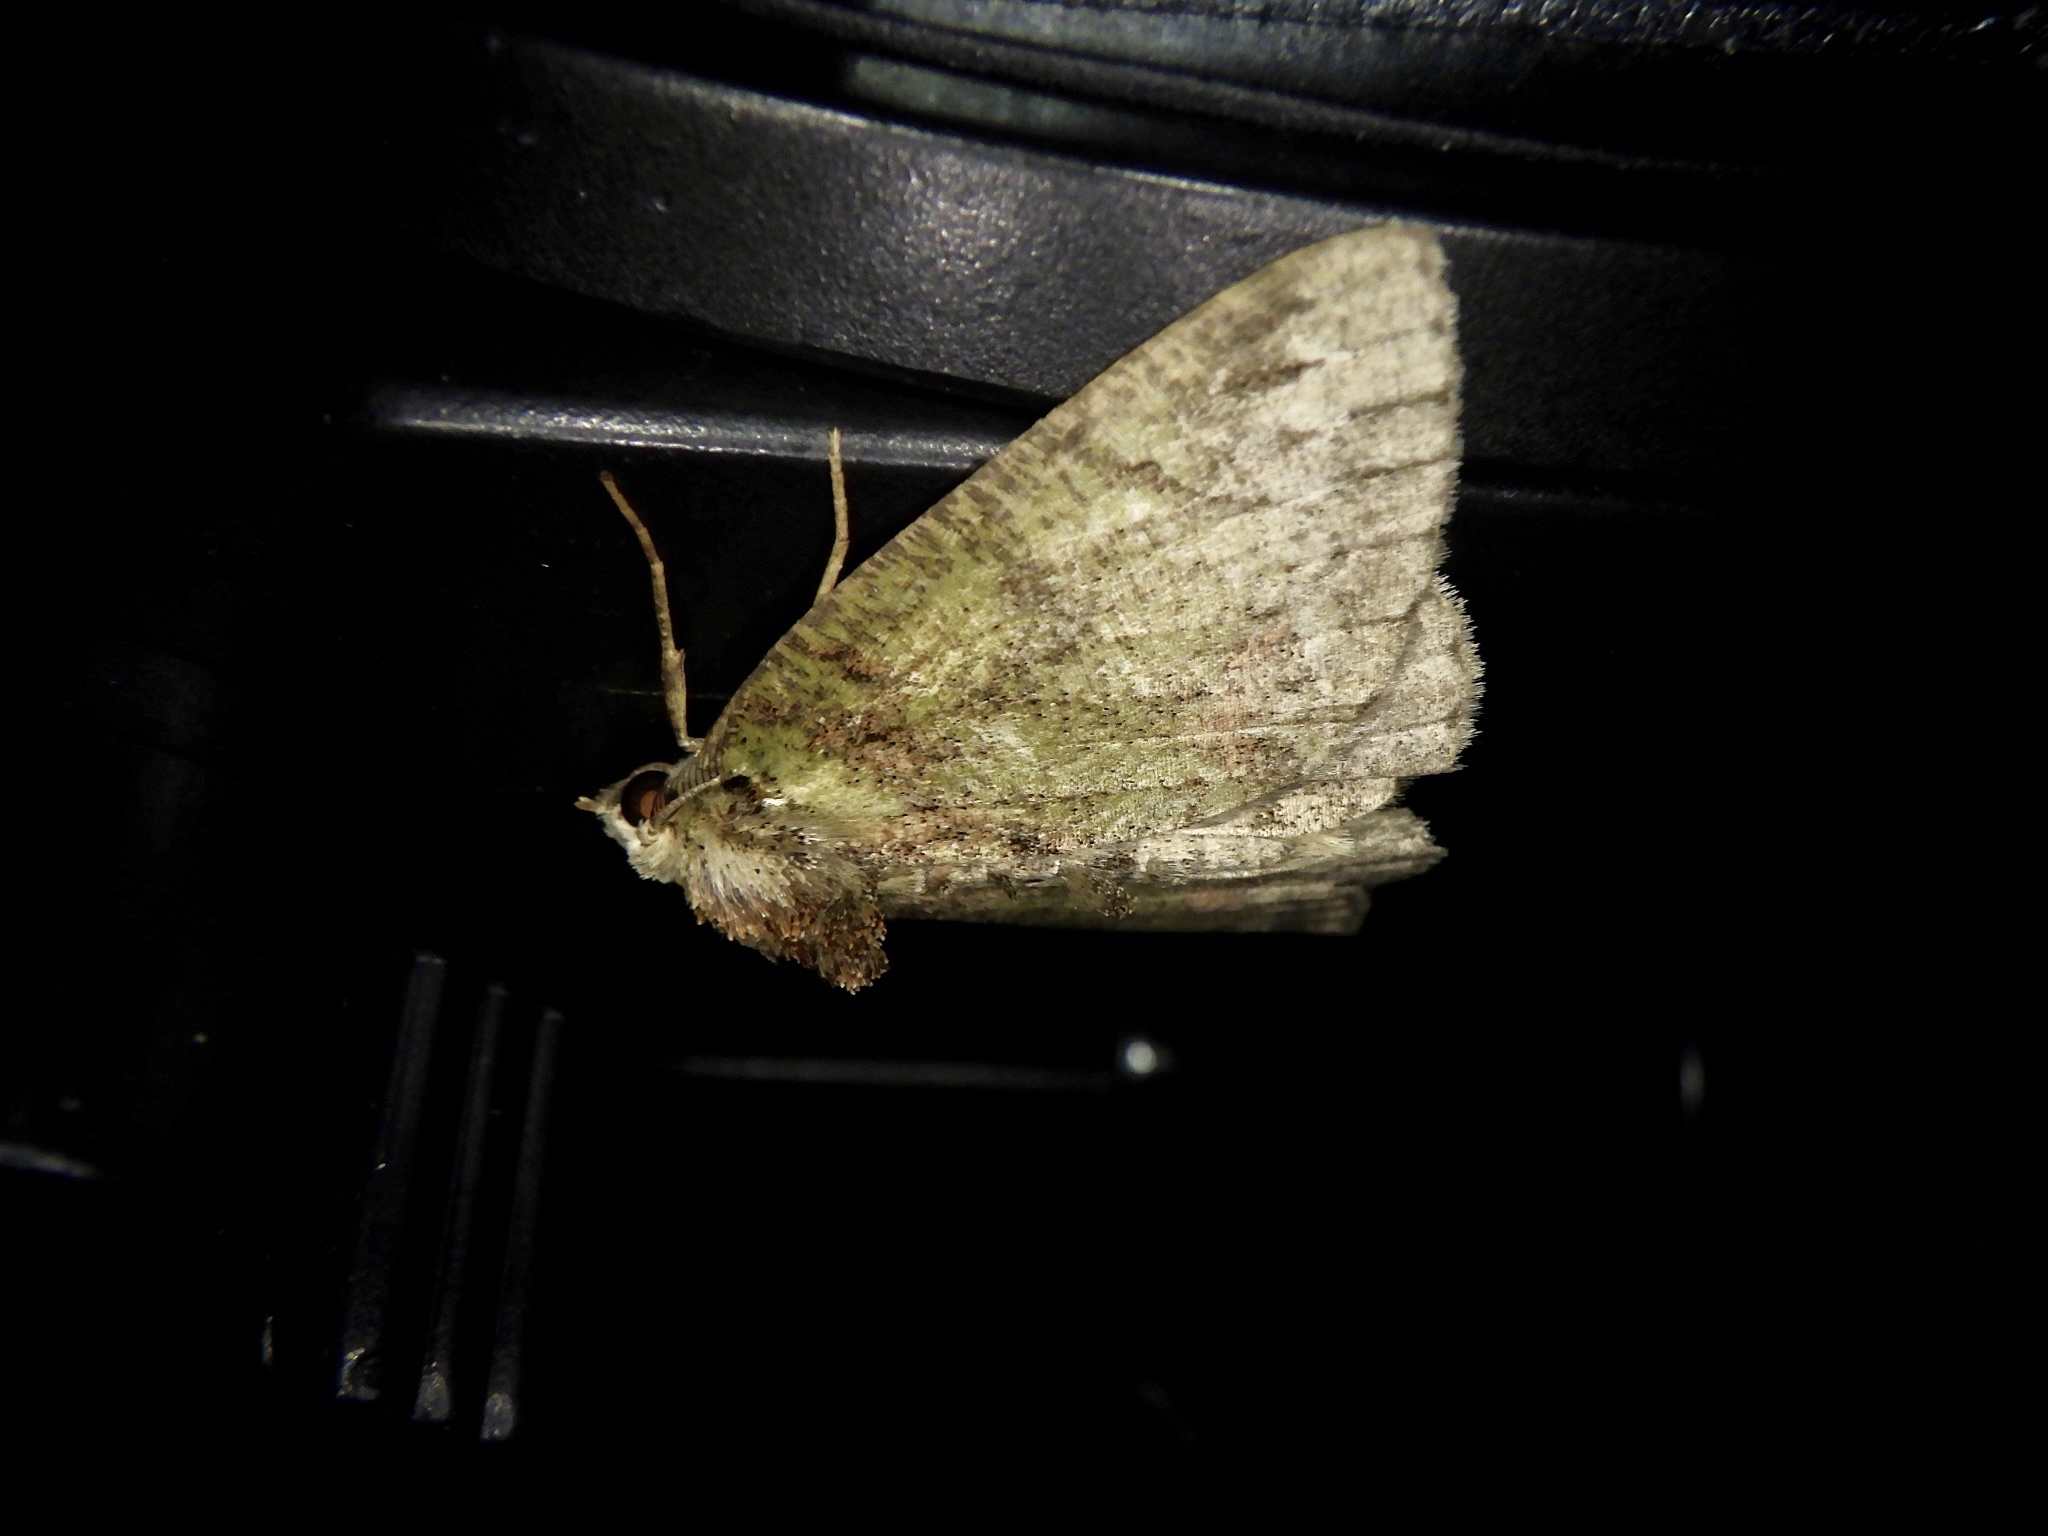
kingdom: Animalia
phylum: Arthropoda
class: Insecta
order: Lepidoptera
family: Geometridae
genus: Dindica
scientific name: Dindica virescens
